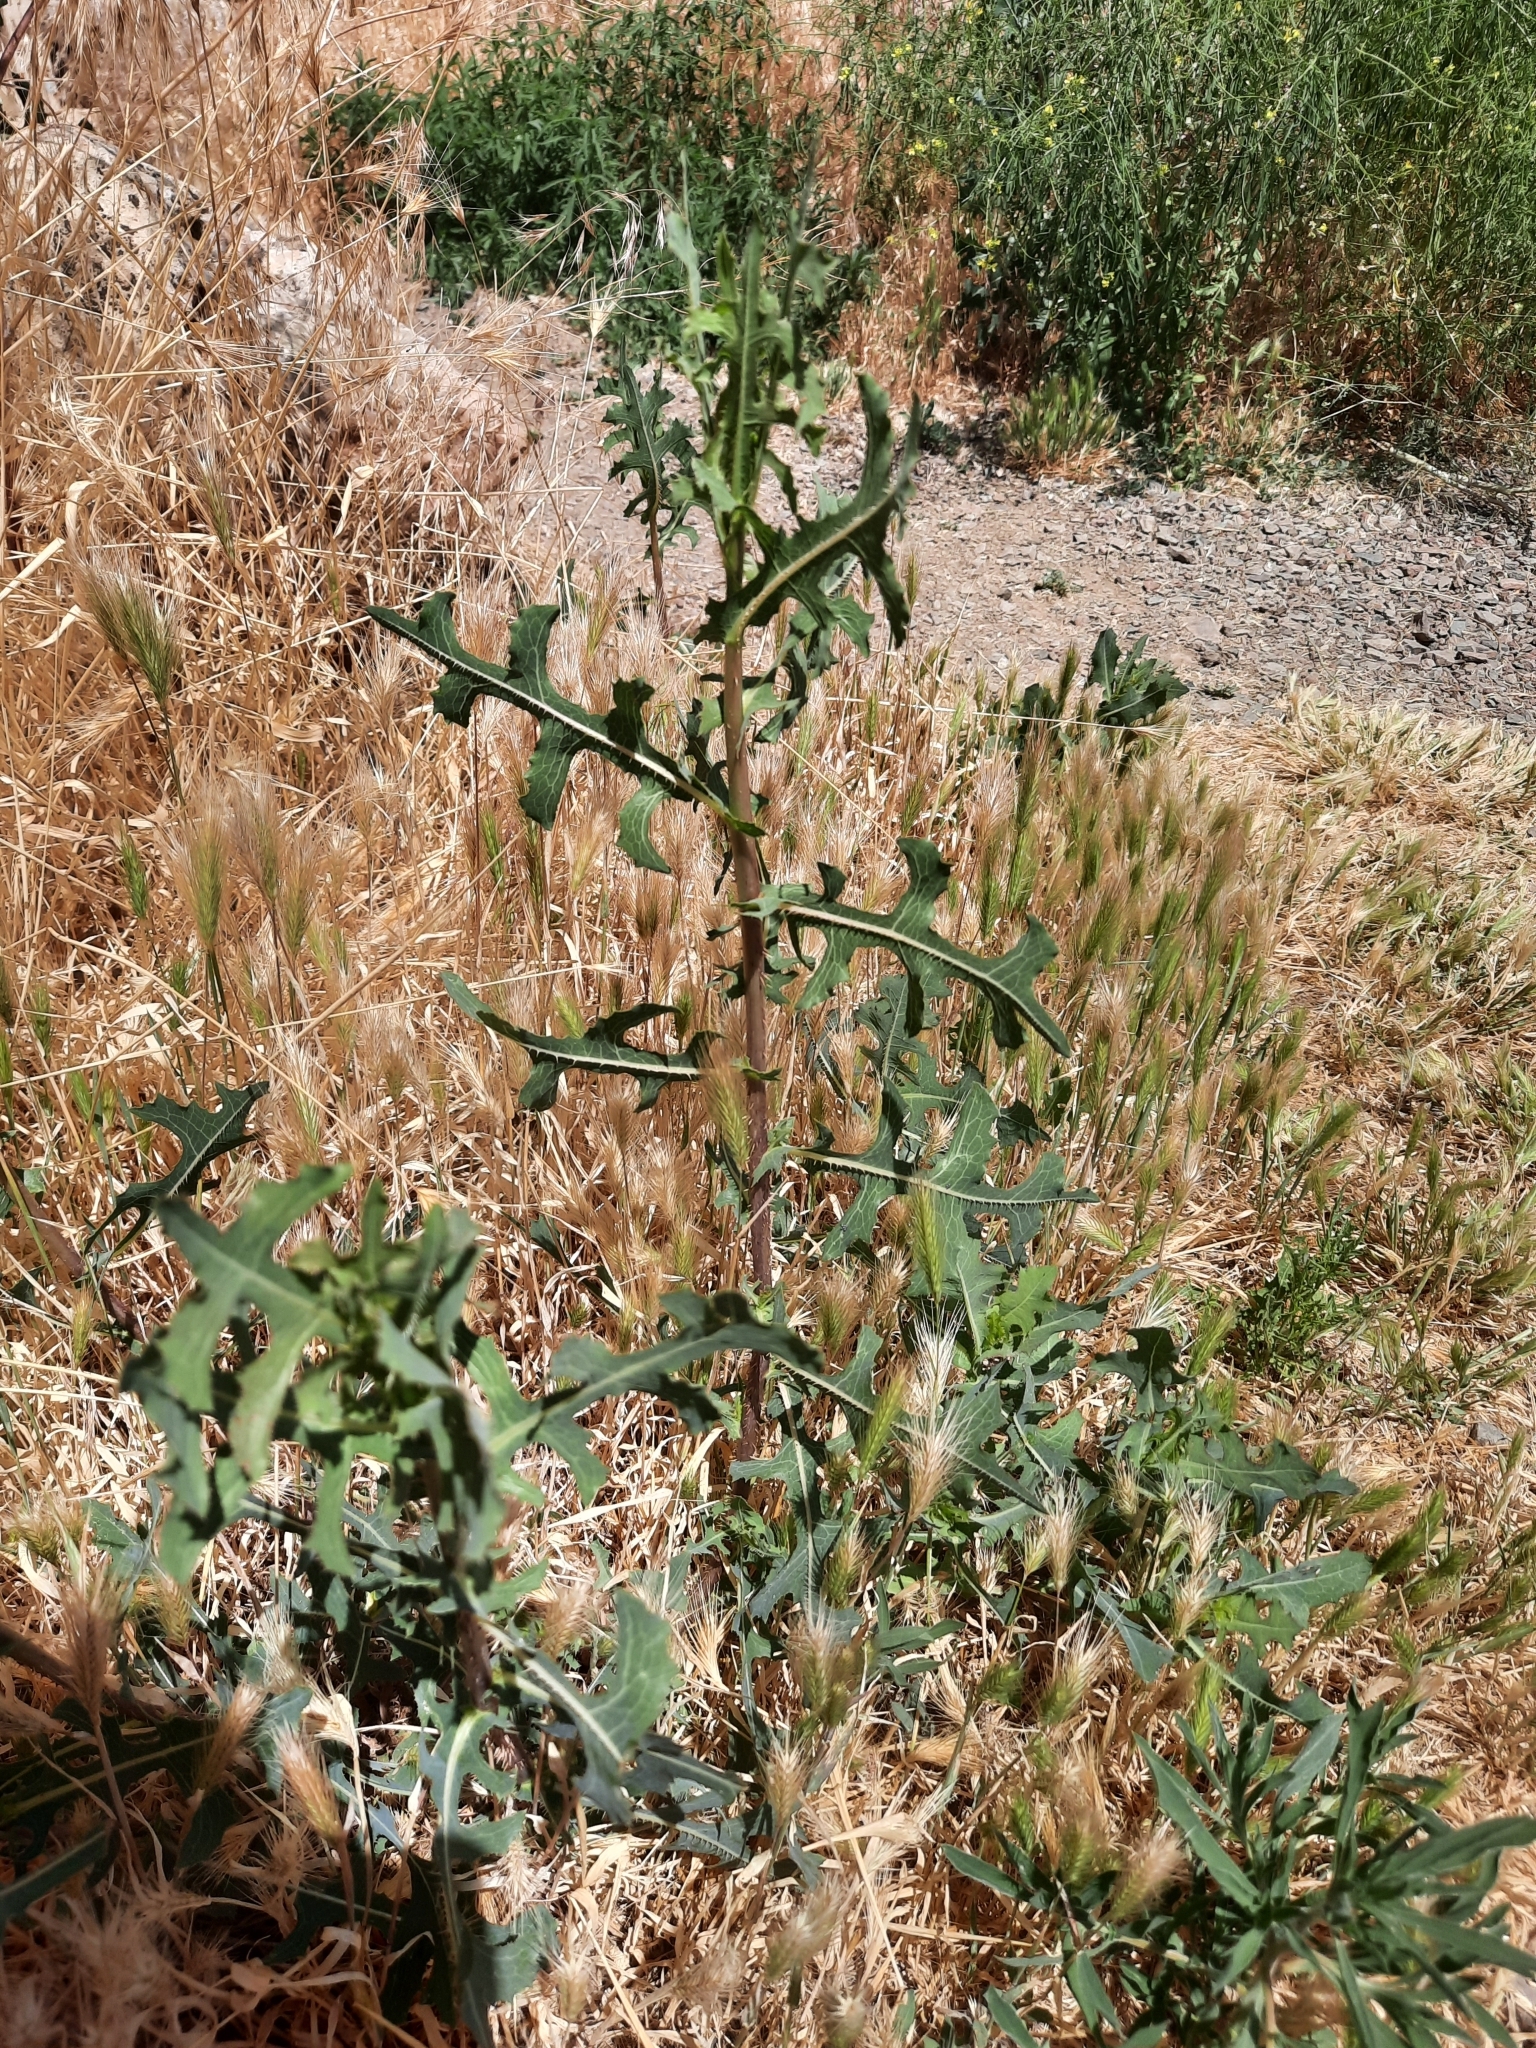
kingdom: Plantae
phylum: Tracheophyta
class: Magnoliopsida
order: Asterales
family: Asteraceae
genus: Lactuca
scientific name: Lactuca serriola
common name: Prickly lettuce
